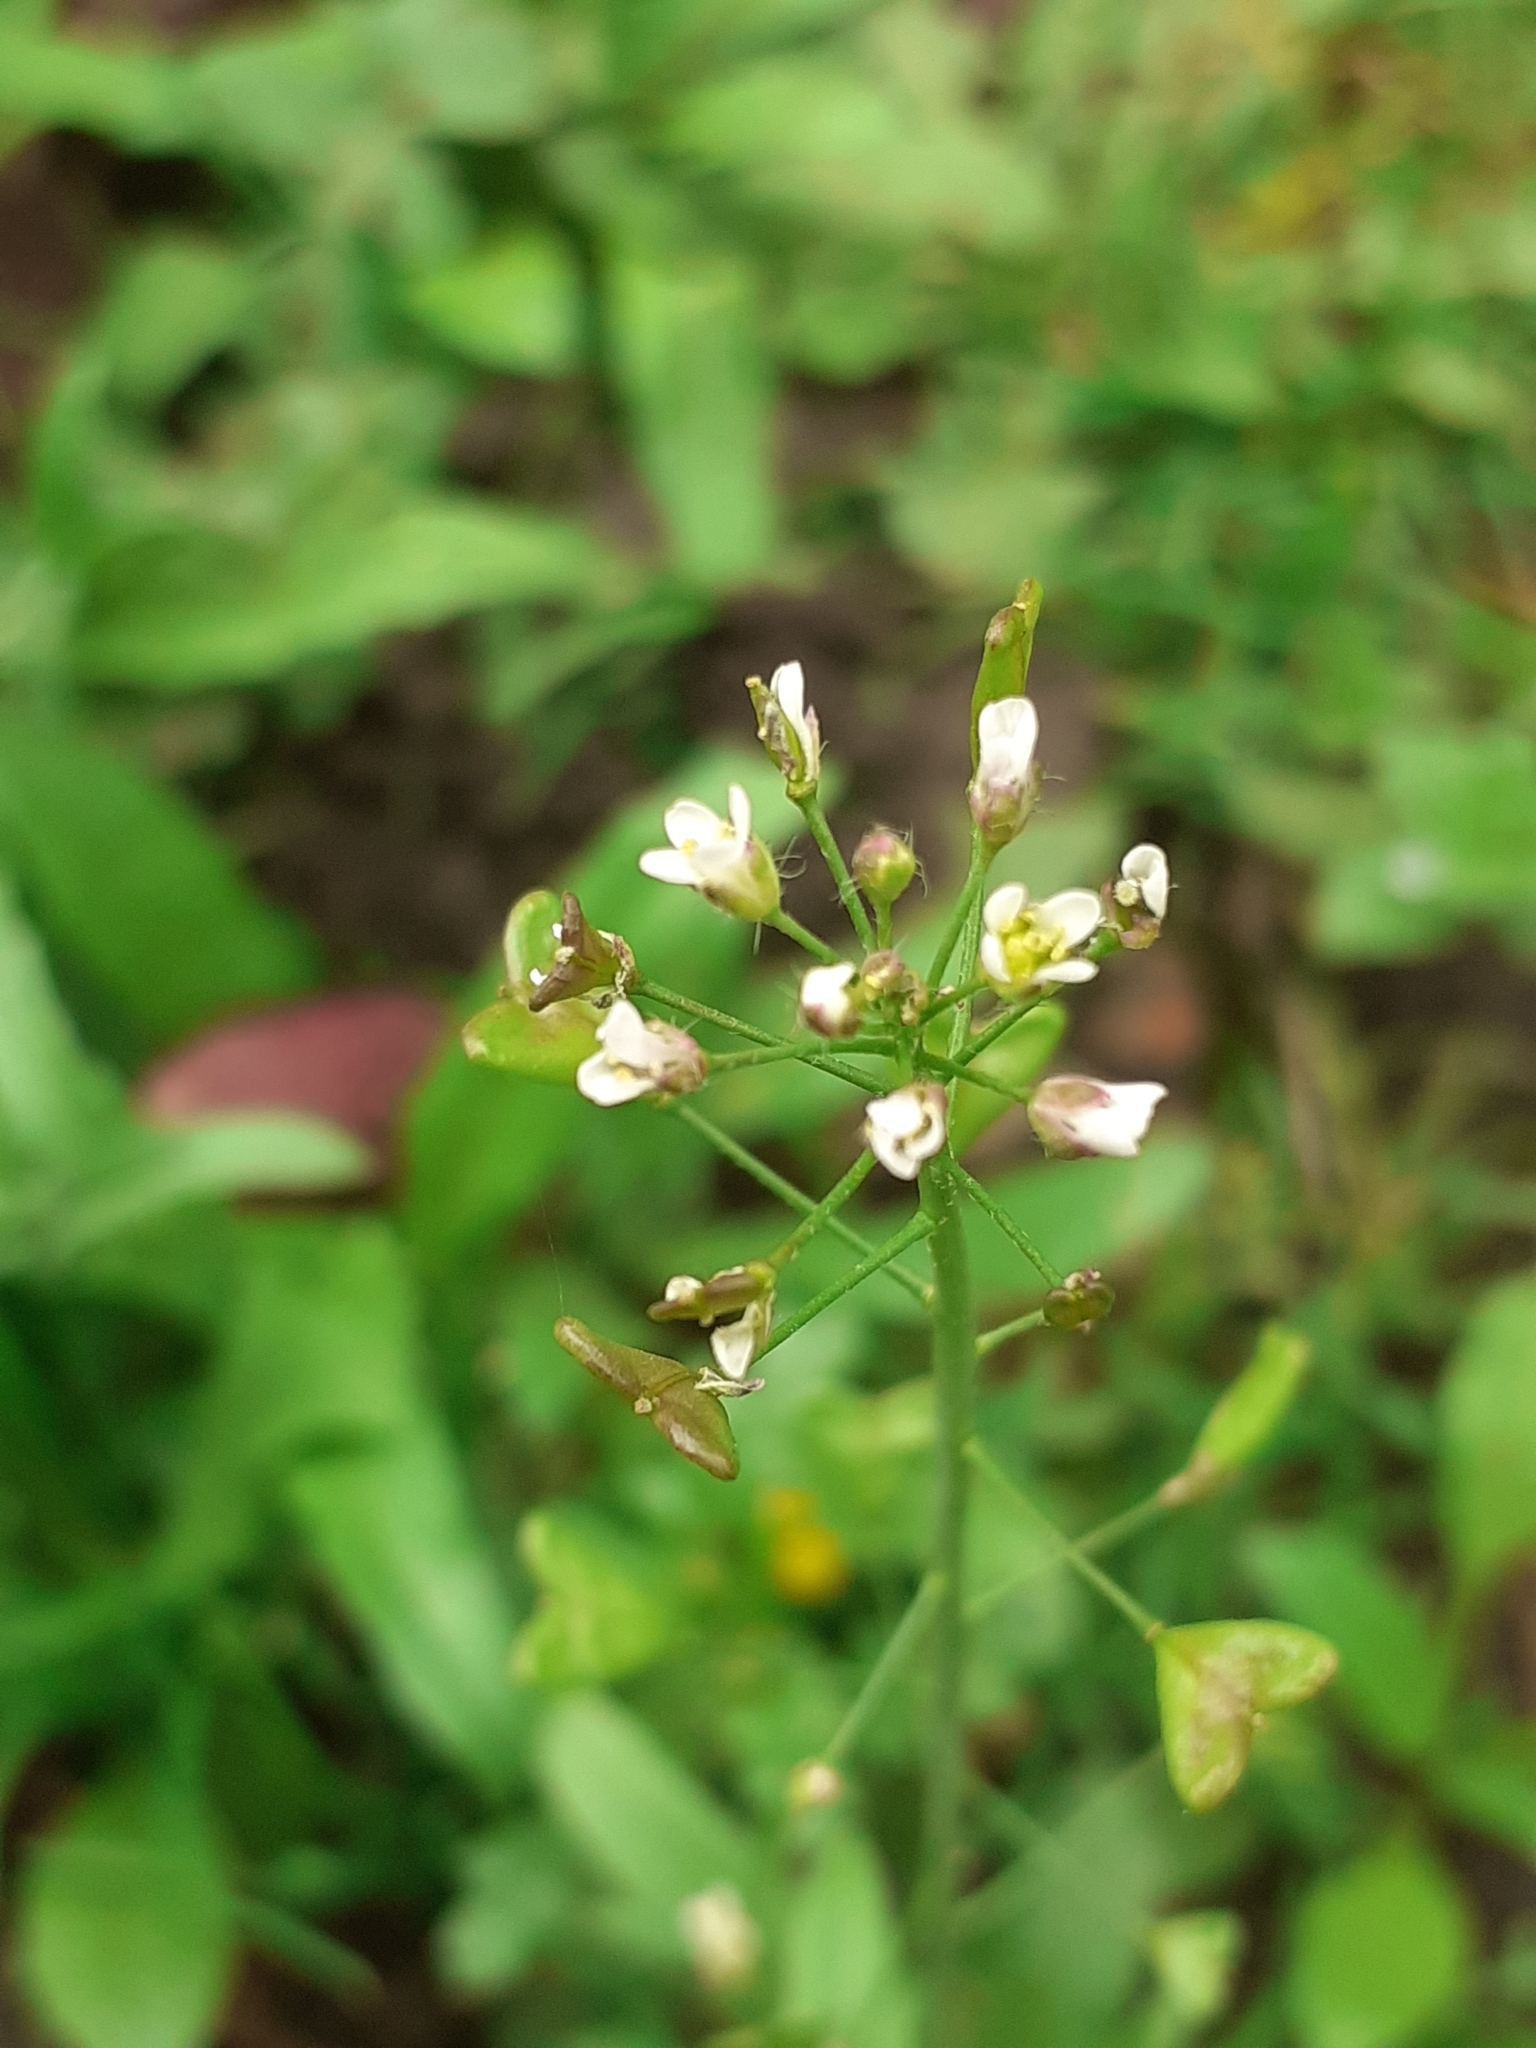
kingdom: Plantae
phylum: Tracheophyta
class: Magnoliopsida
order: Brassicales
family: Brassicaceae
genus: Capsella
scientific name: Capsella bursa-pastoris
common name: Shepherd's purse
